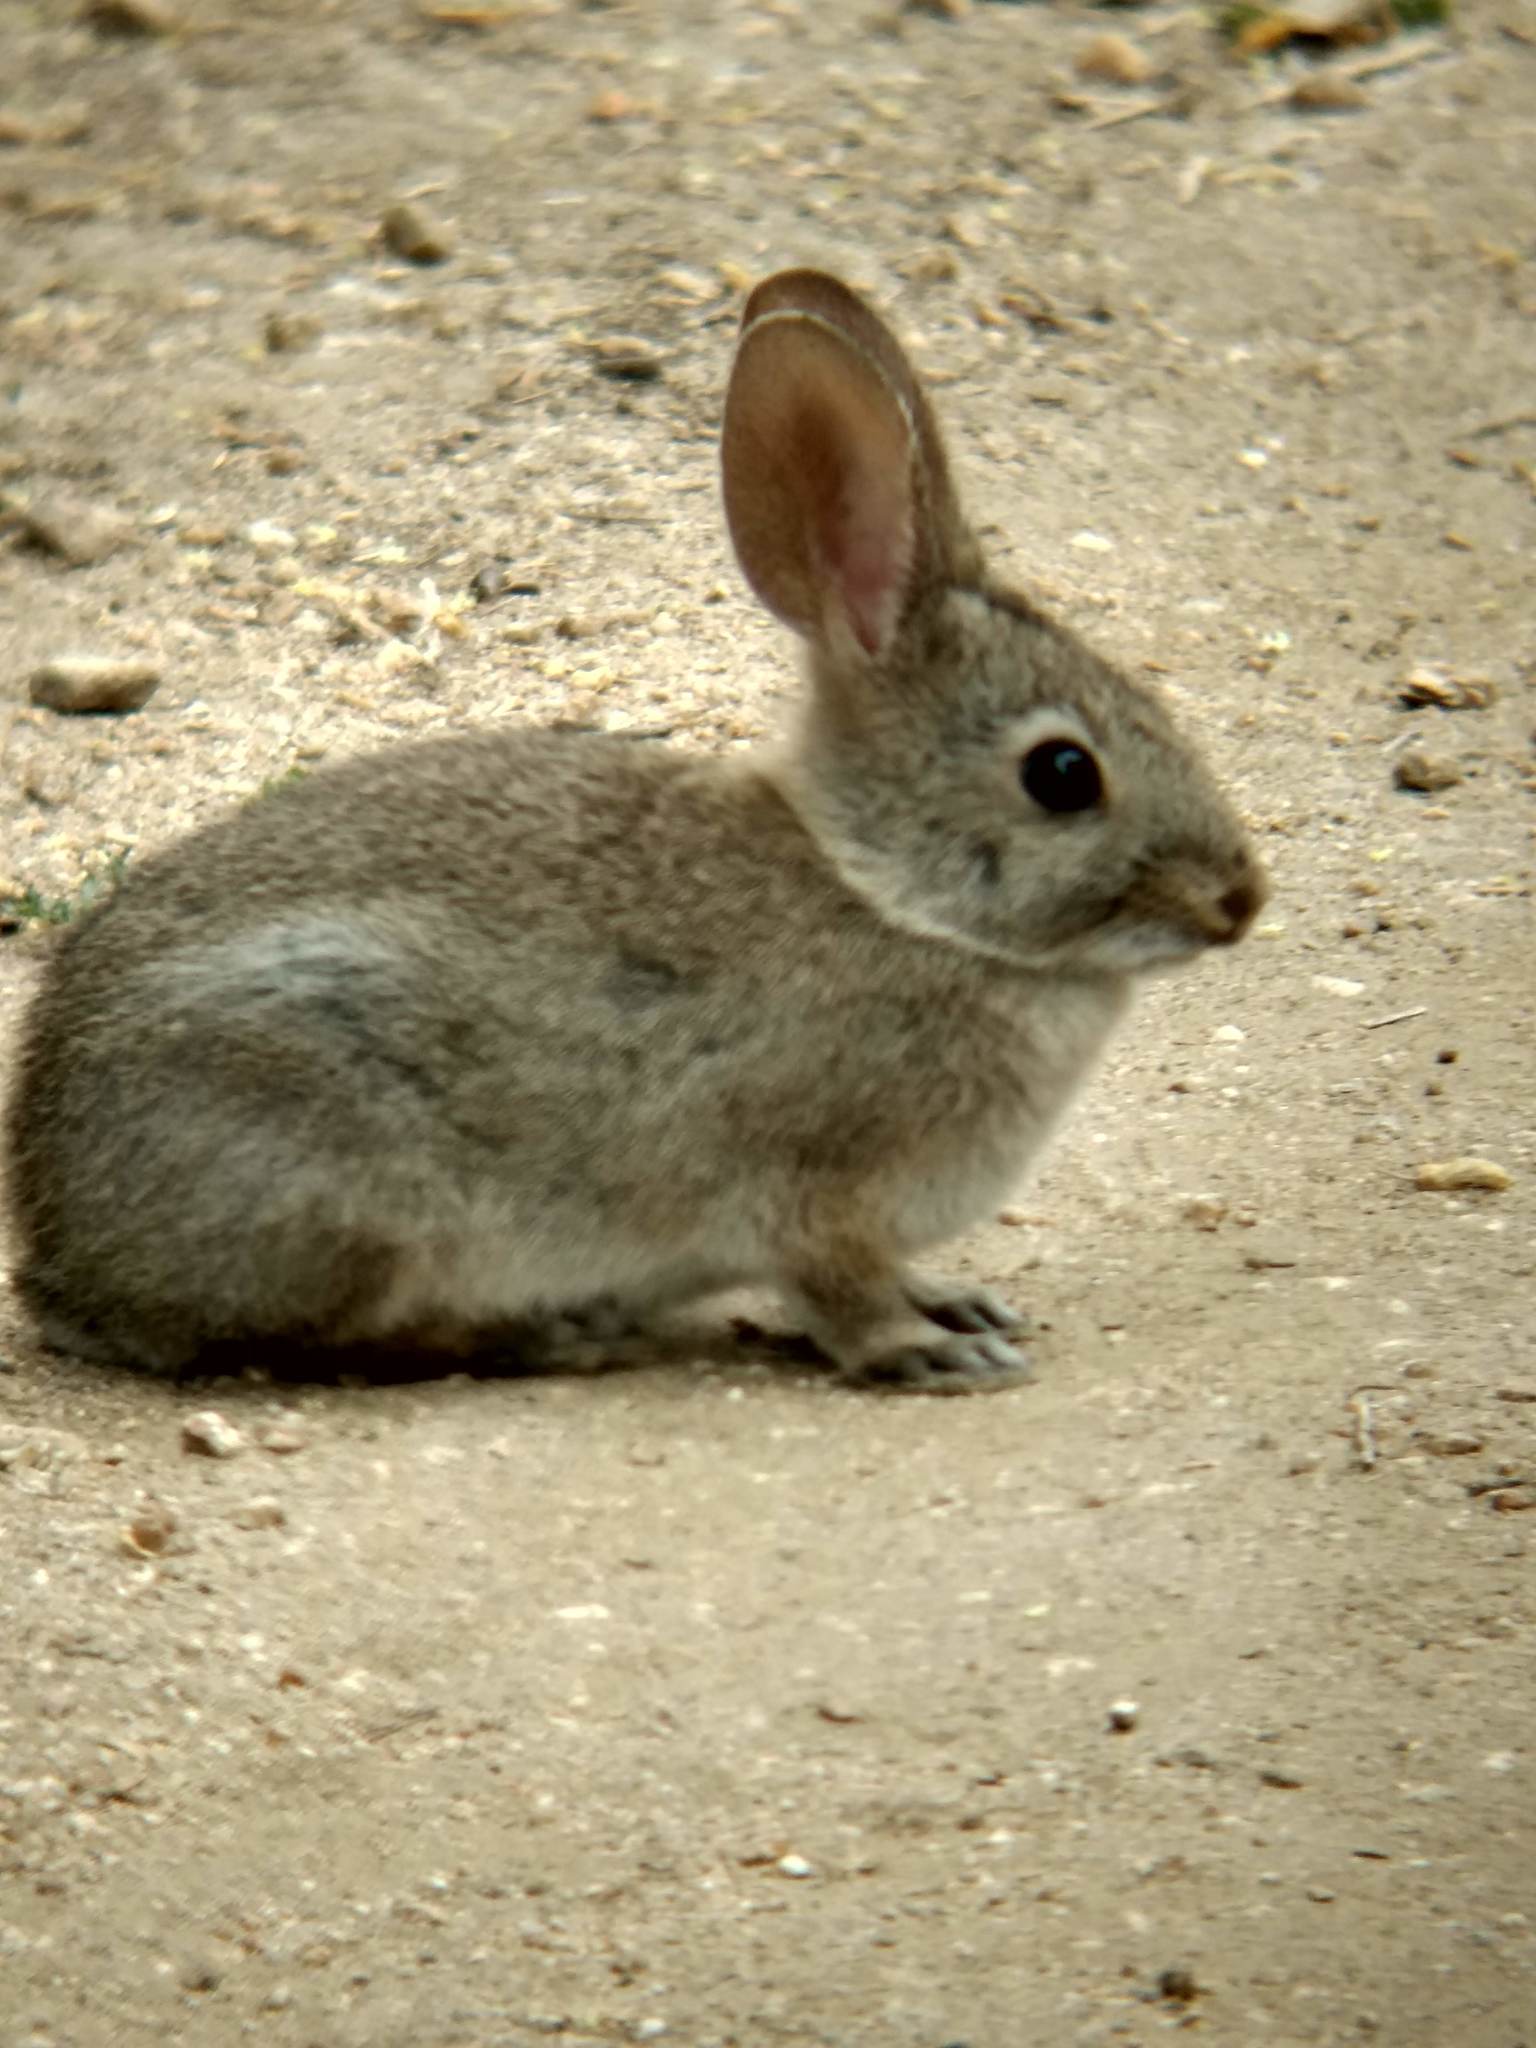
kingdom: Animalia
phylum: Chordata
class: Mammalia
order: Lagomorpha
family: Leporidae
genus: Sylvilagus
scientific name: Sylvilagus bachmani
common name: Brush rabbit
